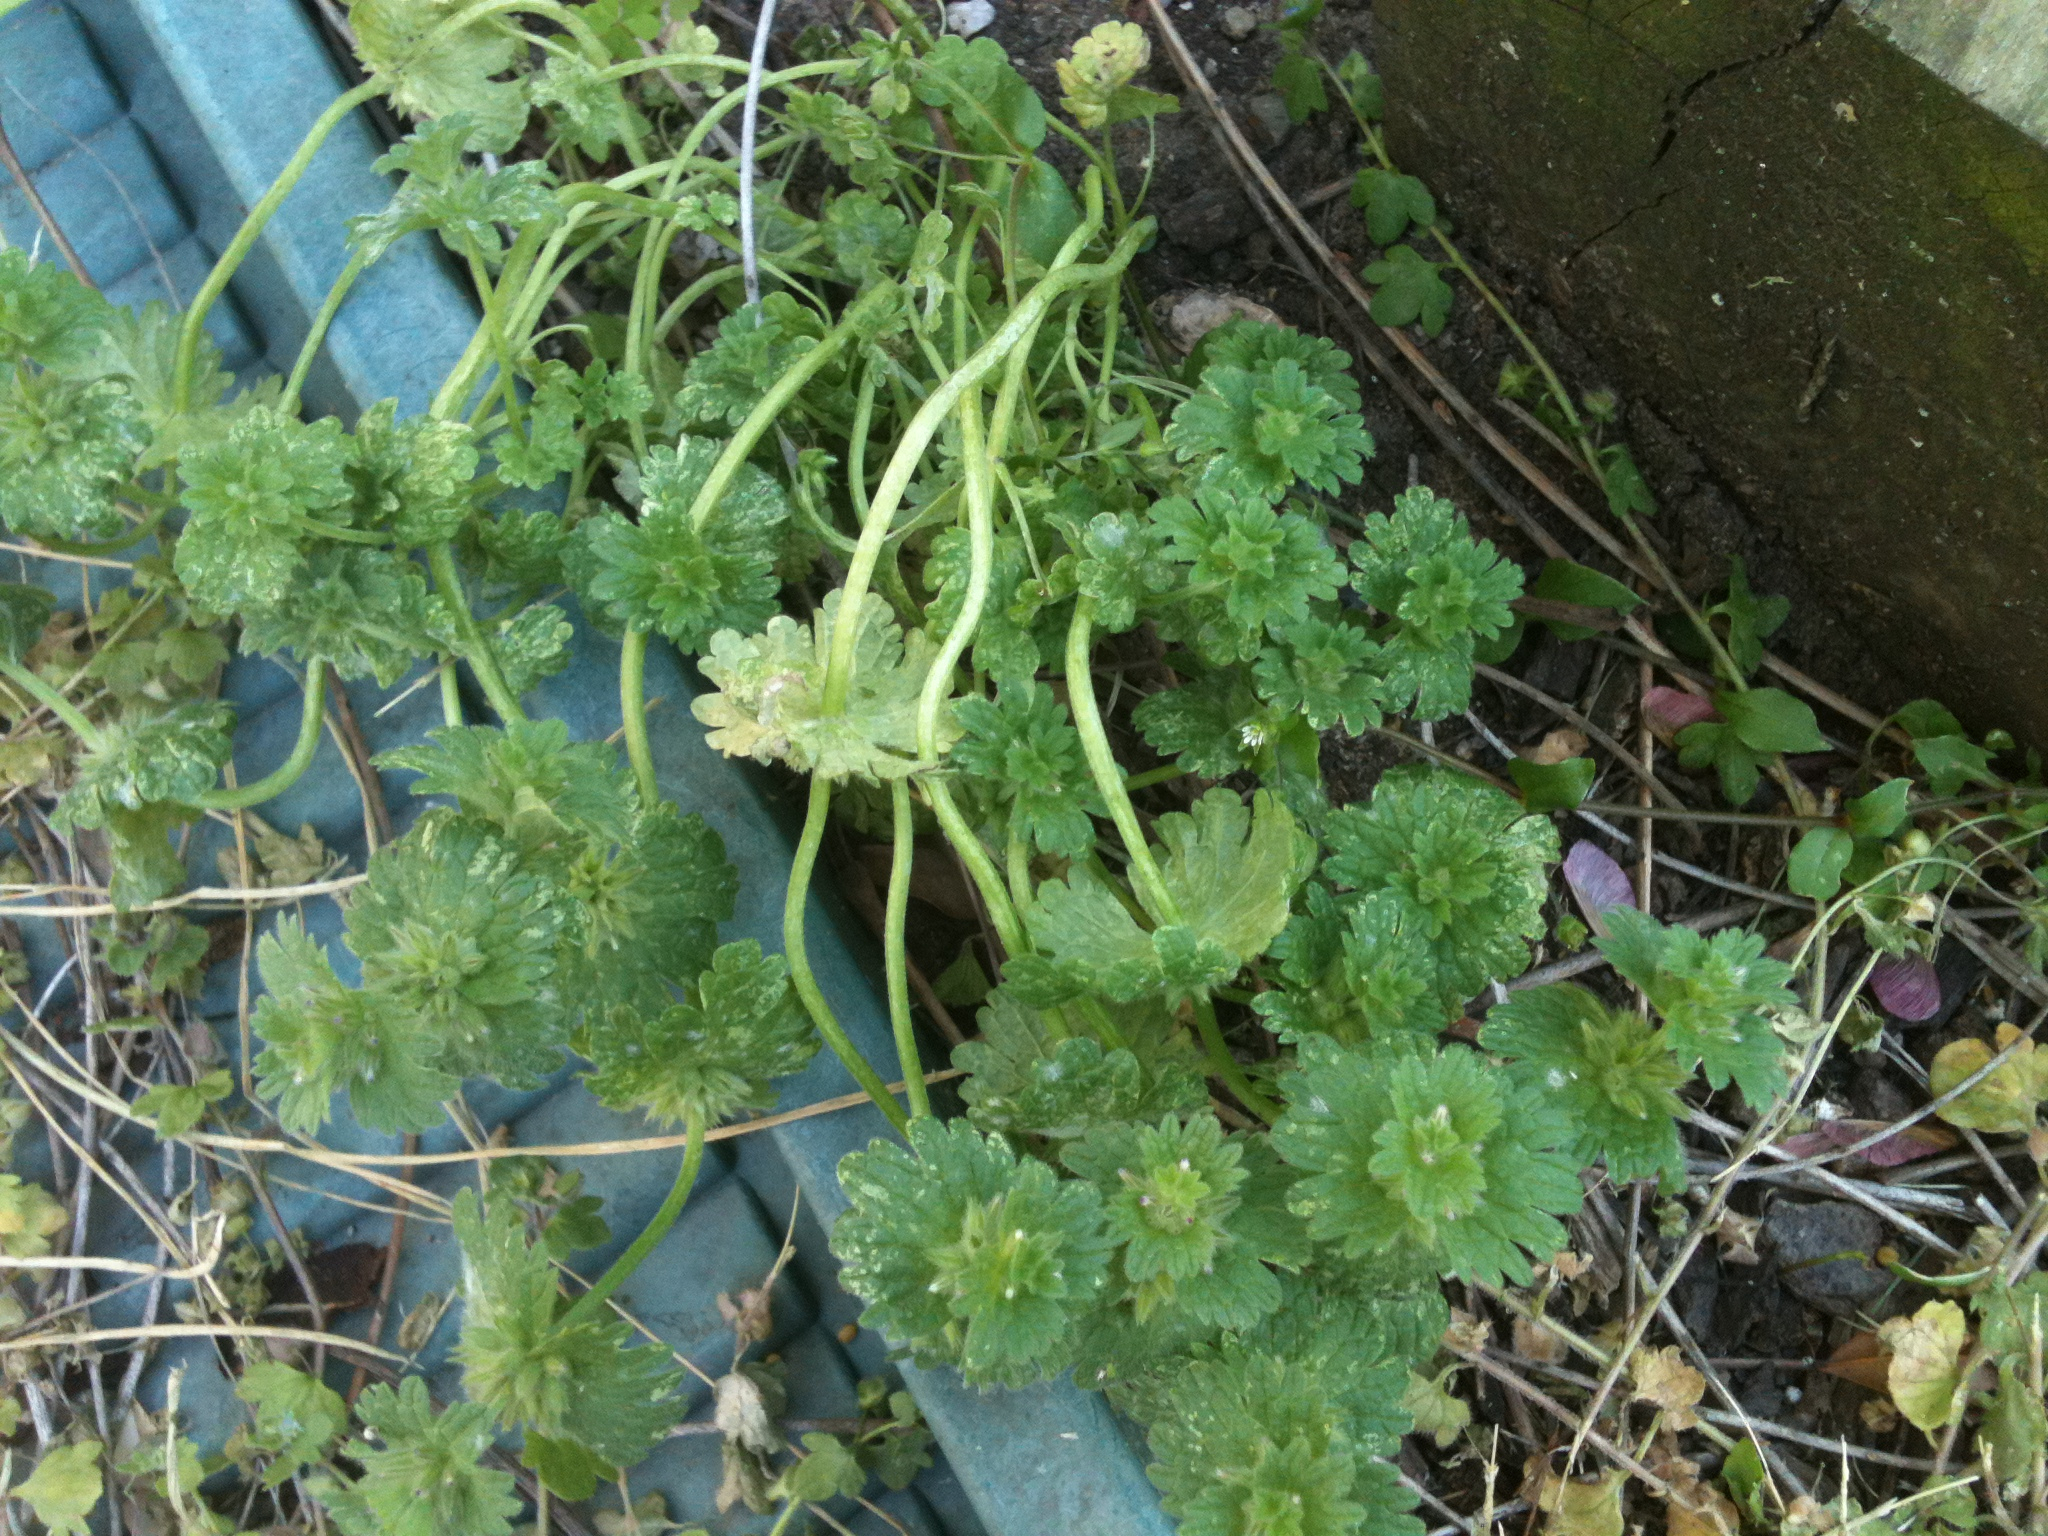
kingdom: Plantae
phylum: Tracheophyta
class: Magnoliopsida
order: Lamiales
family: Lamiaceae
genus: Lamium
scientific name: Lamium amplexicaule
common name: Henbit dead-nettle
